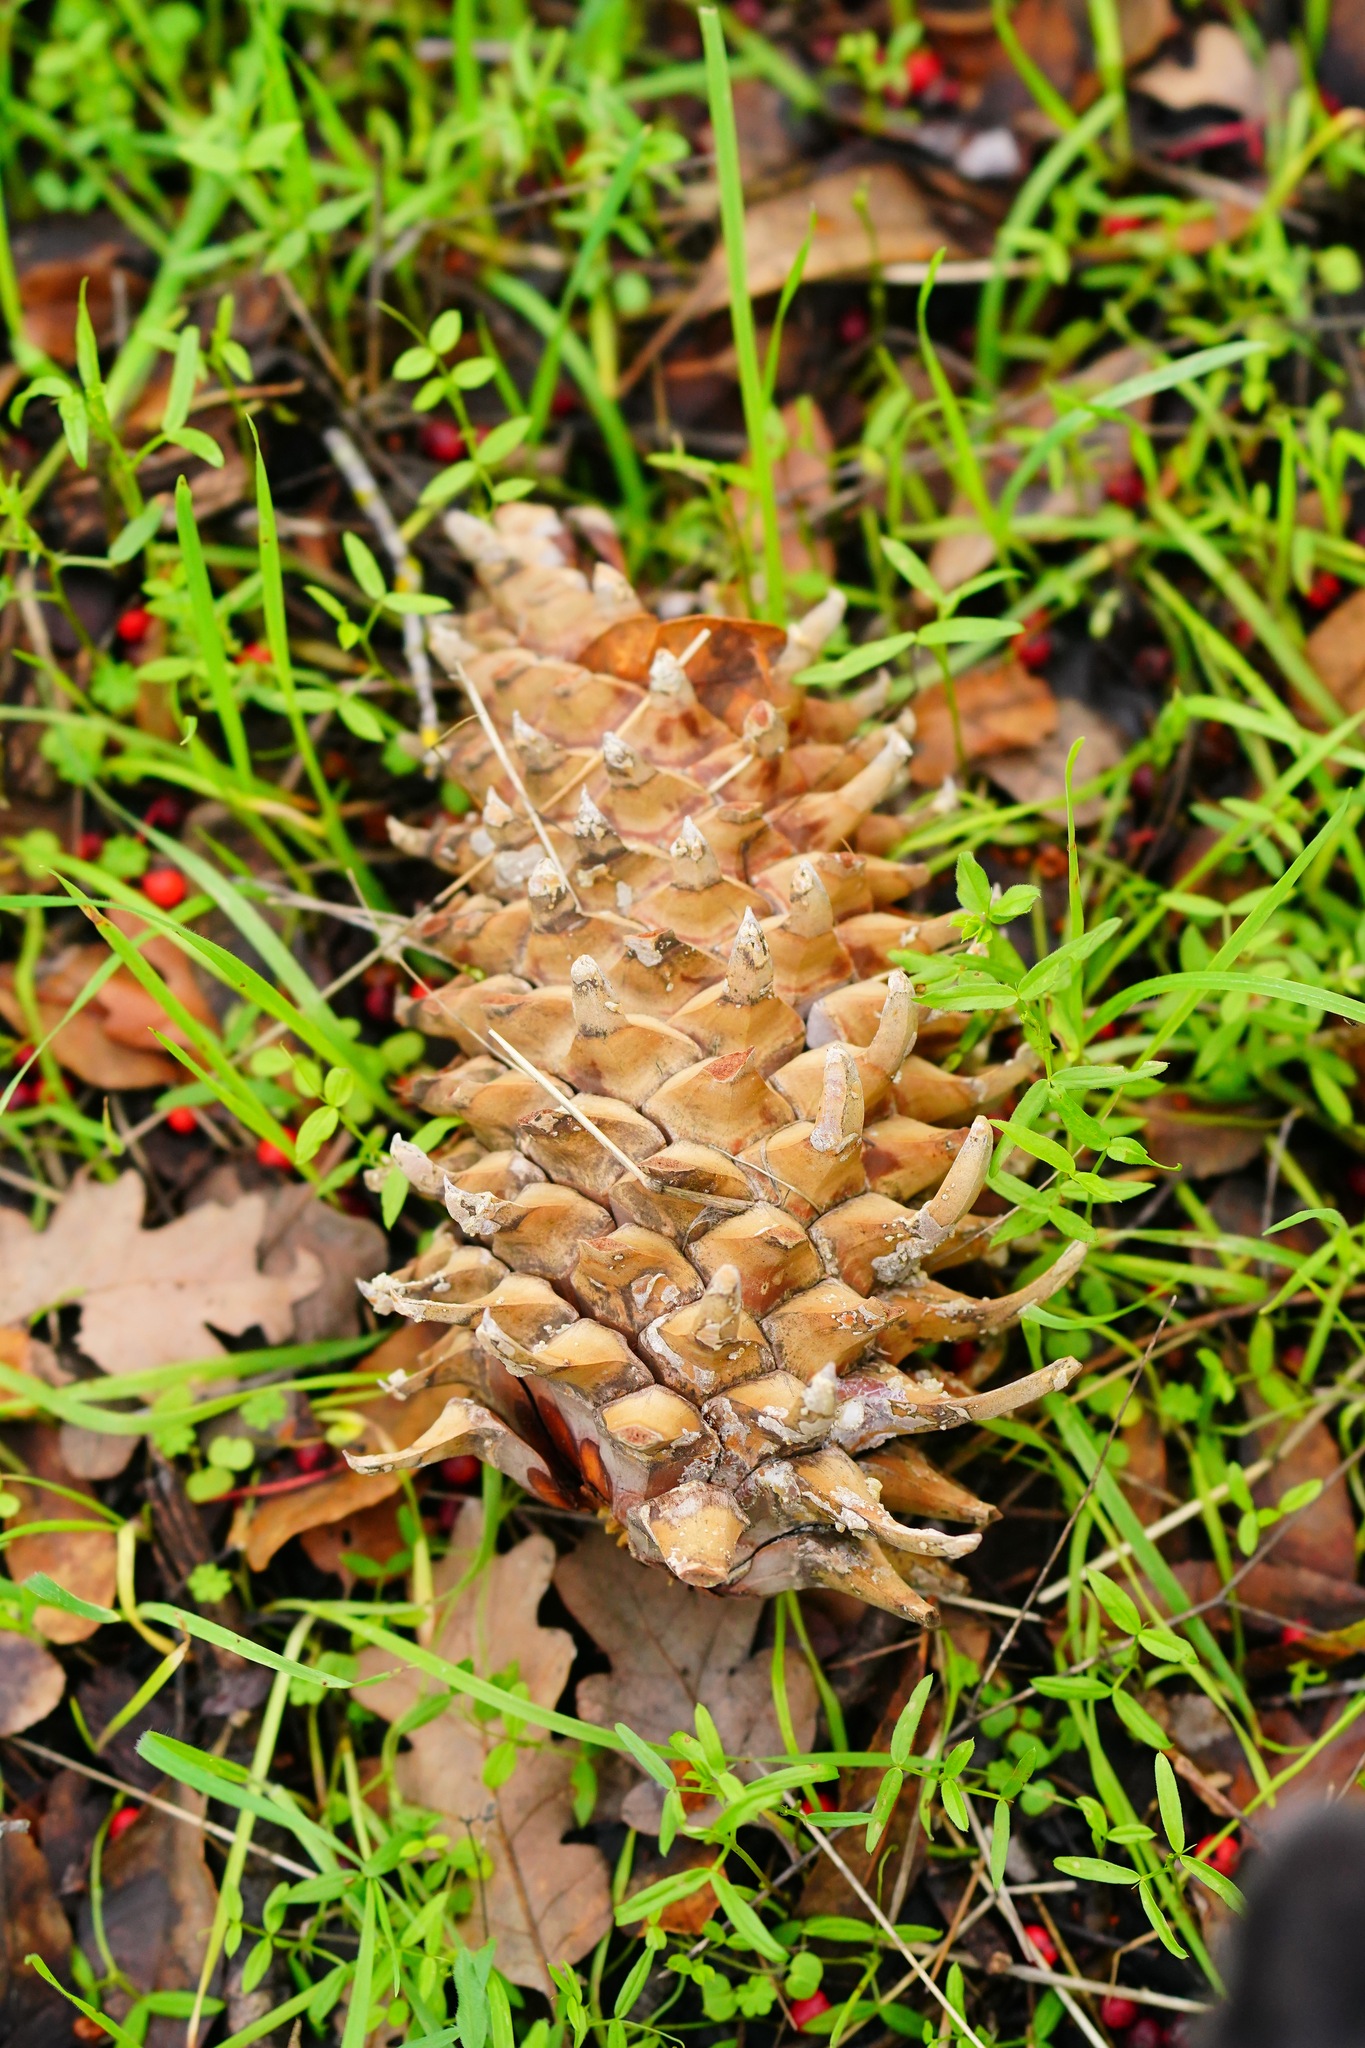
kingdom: Plantae
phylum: Tracheophyta
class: Pinopsida
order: Pinales
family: Pinaceae
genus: Pinus
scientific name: Pinus coulteri
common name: Coulter pine
